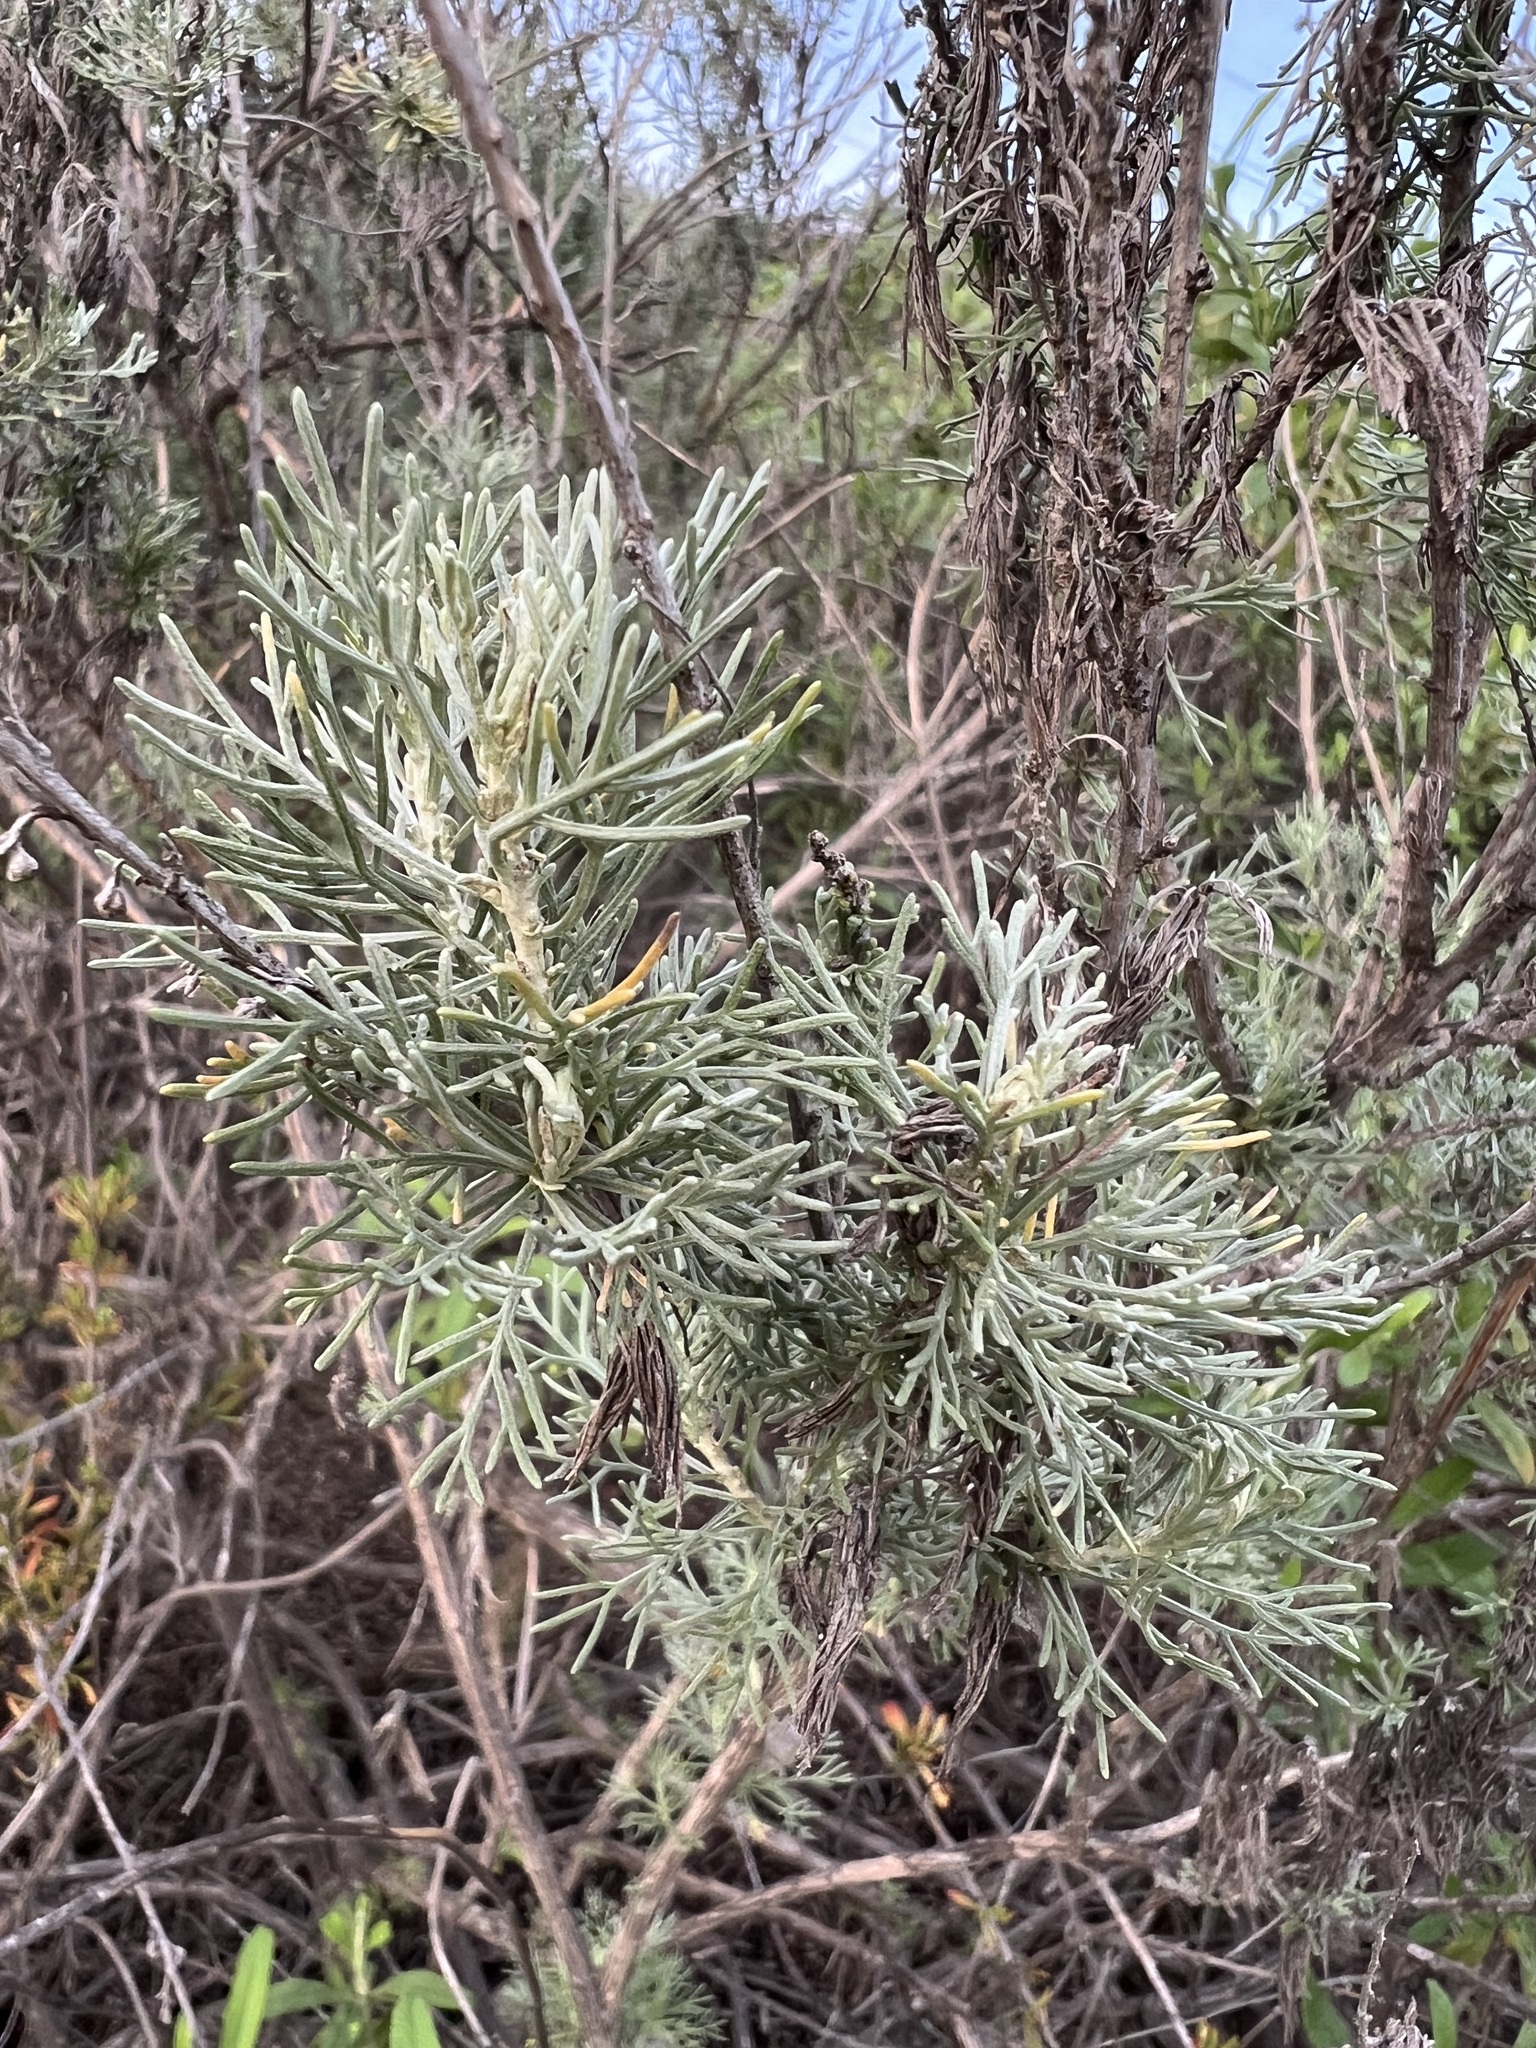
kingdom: Plantae
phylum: Tracheophyta
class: Magnoliopsida
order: Asterales
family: Asteraceae
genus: Artemisia
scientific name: Artemisia californica
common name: California sagebrush
